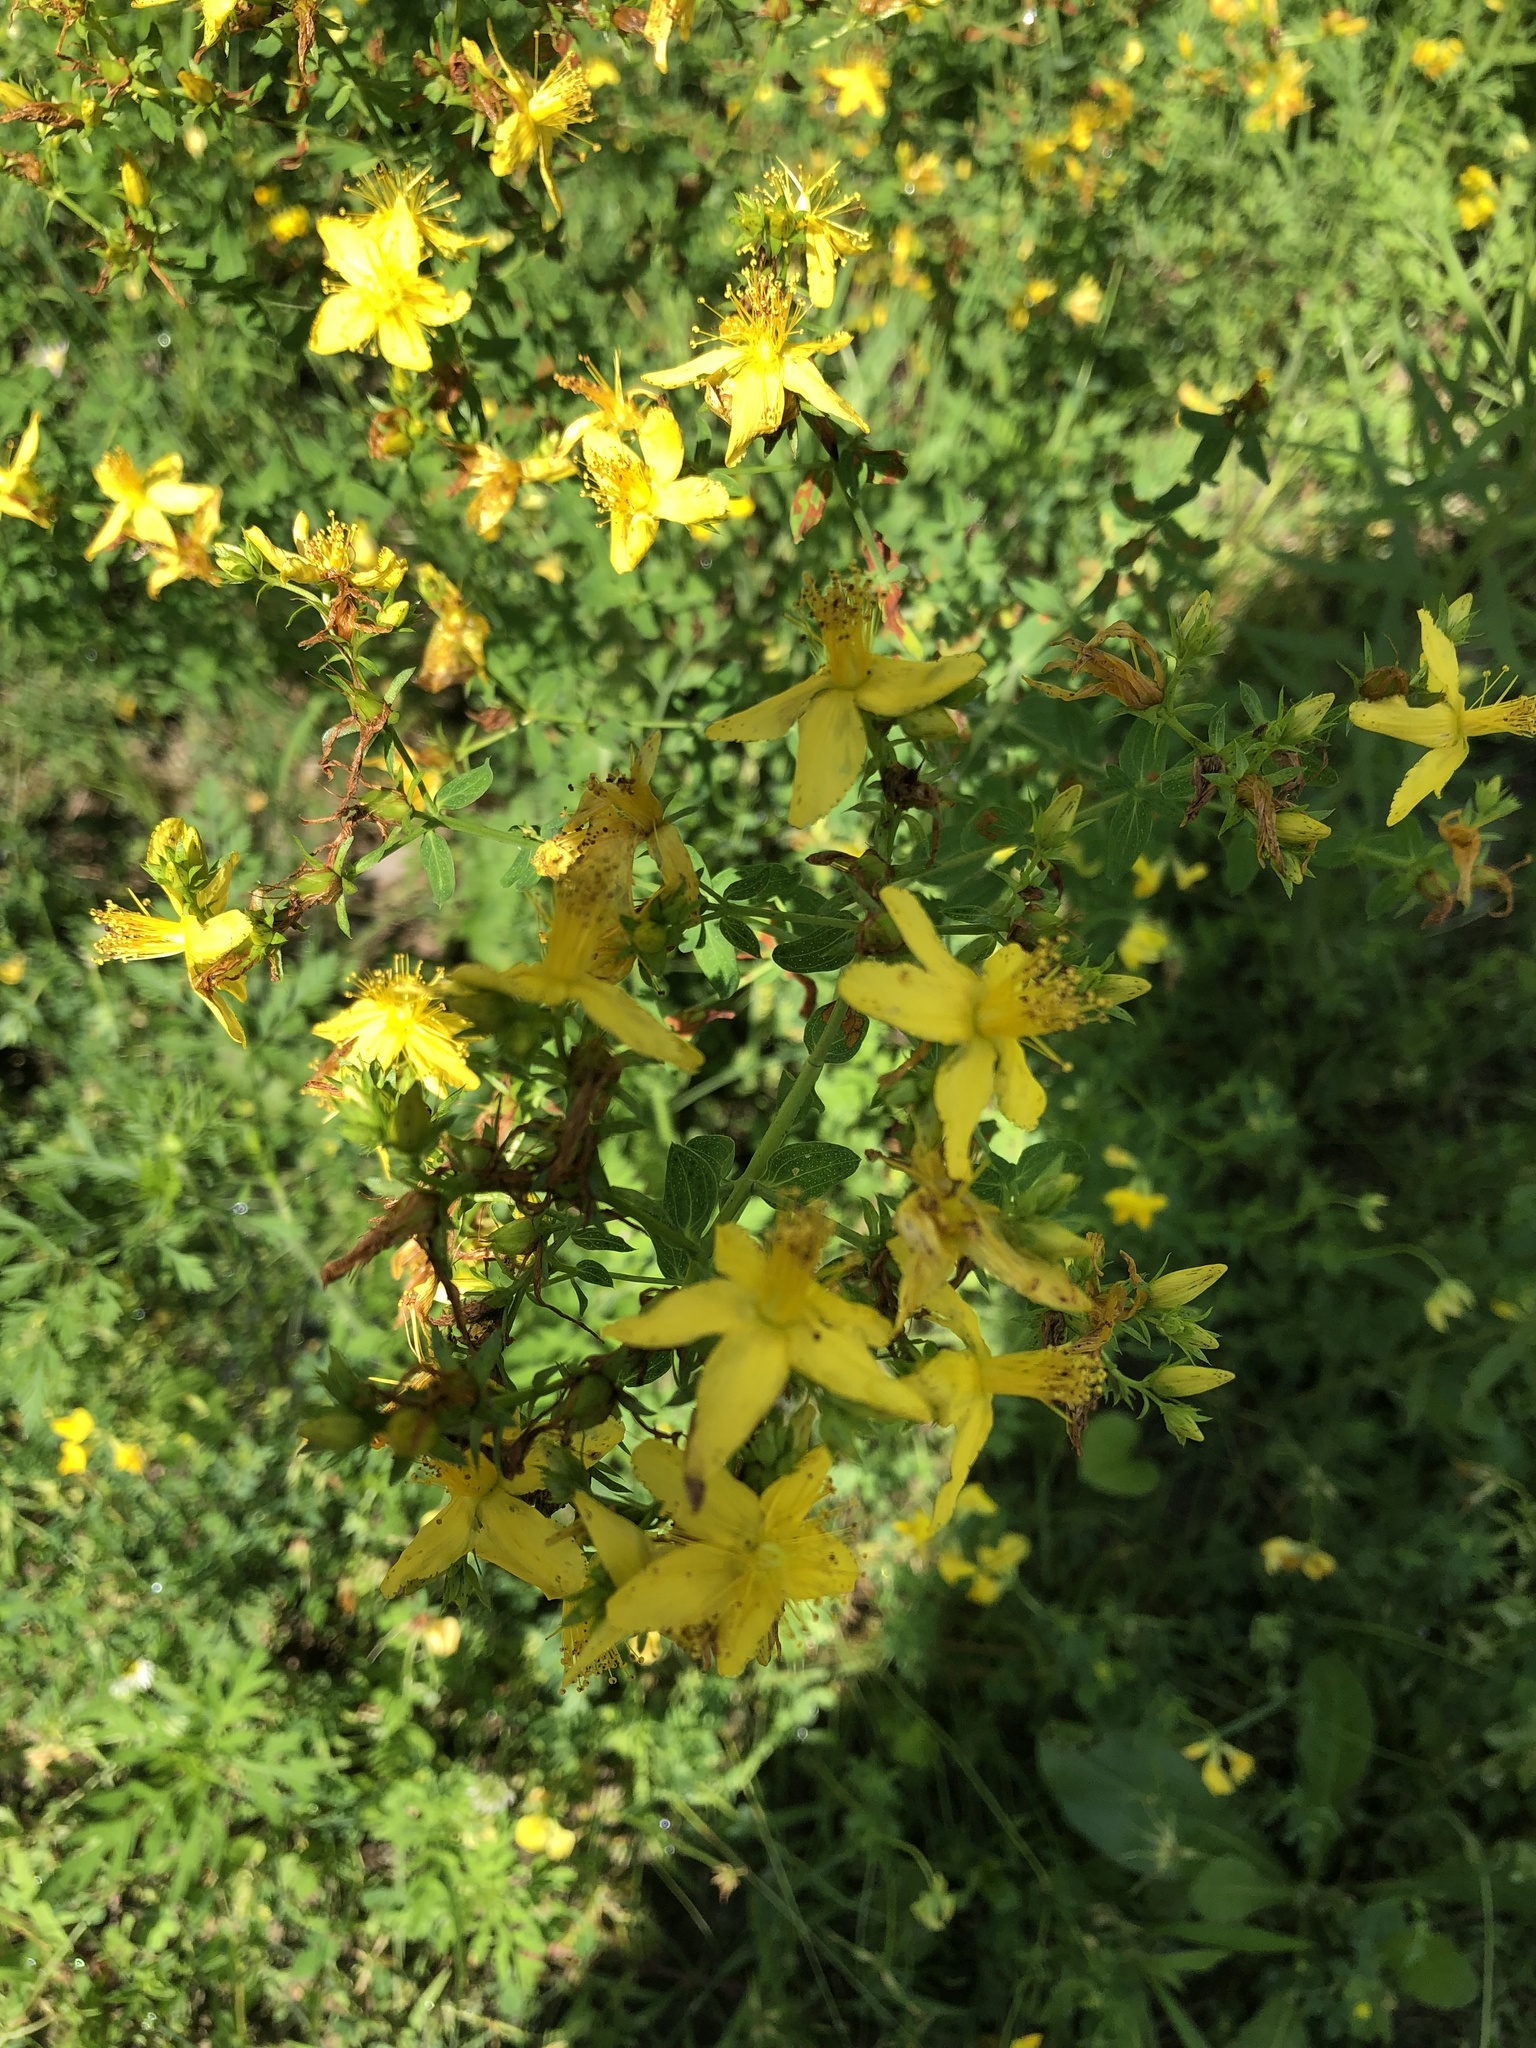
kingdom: Plantae
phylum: Tracheophyta
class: Magnoliopsida
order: Malpighiales
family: Hypericaceae
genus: Hypericum
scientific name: Hypericum perforatum
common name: Common st. johnswort
